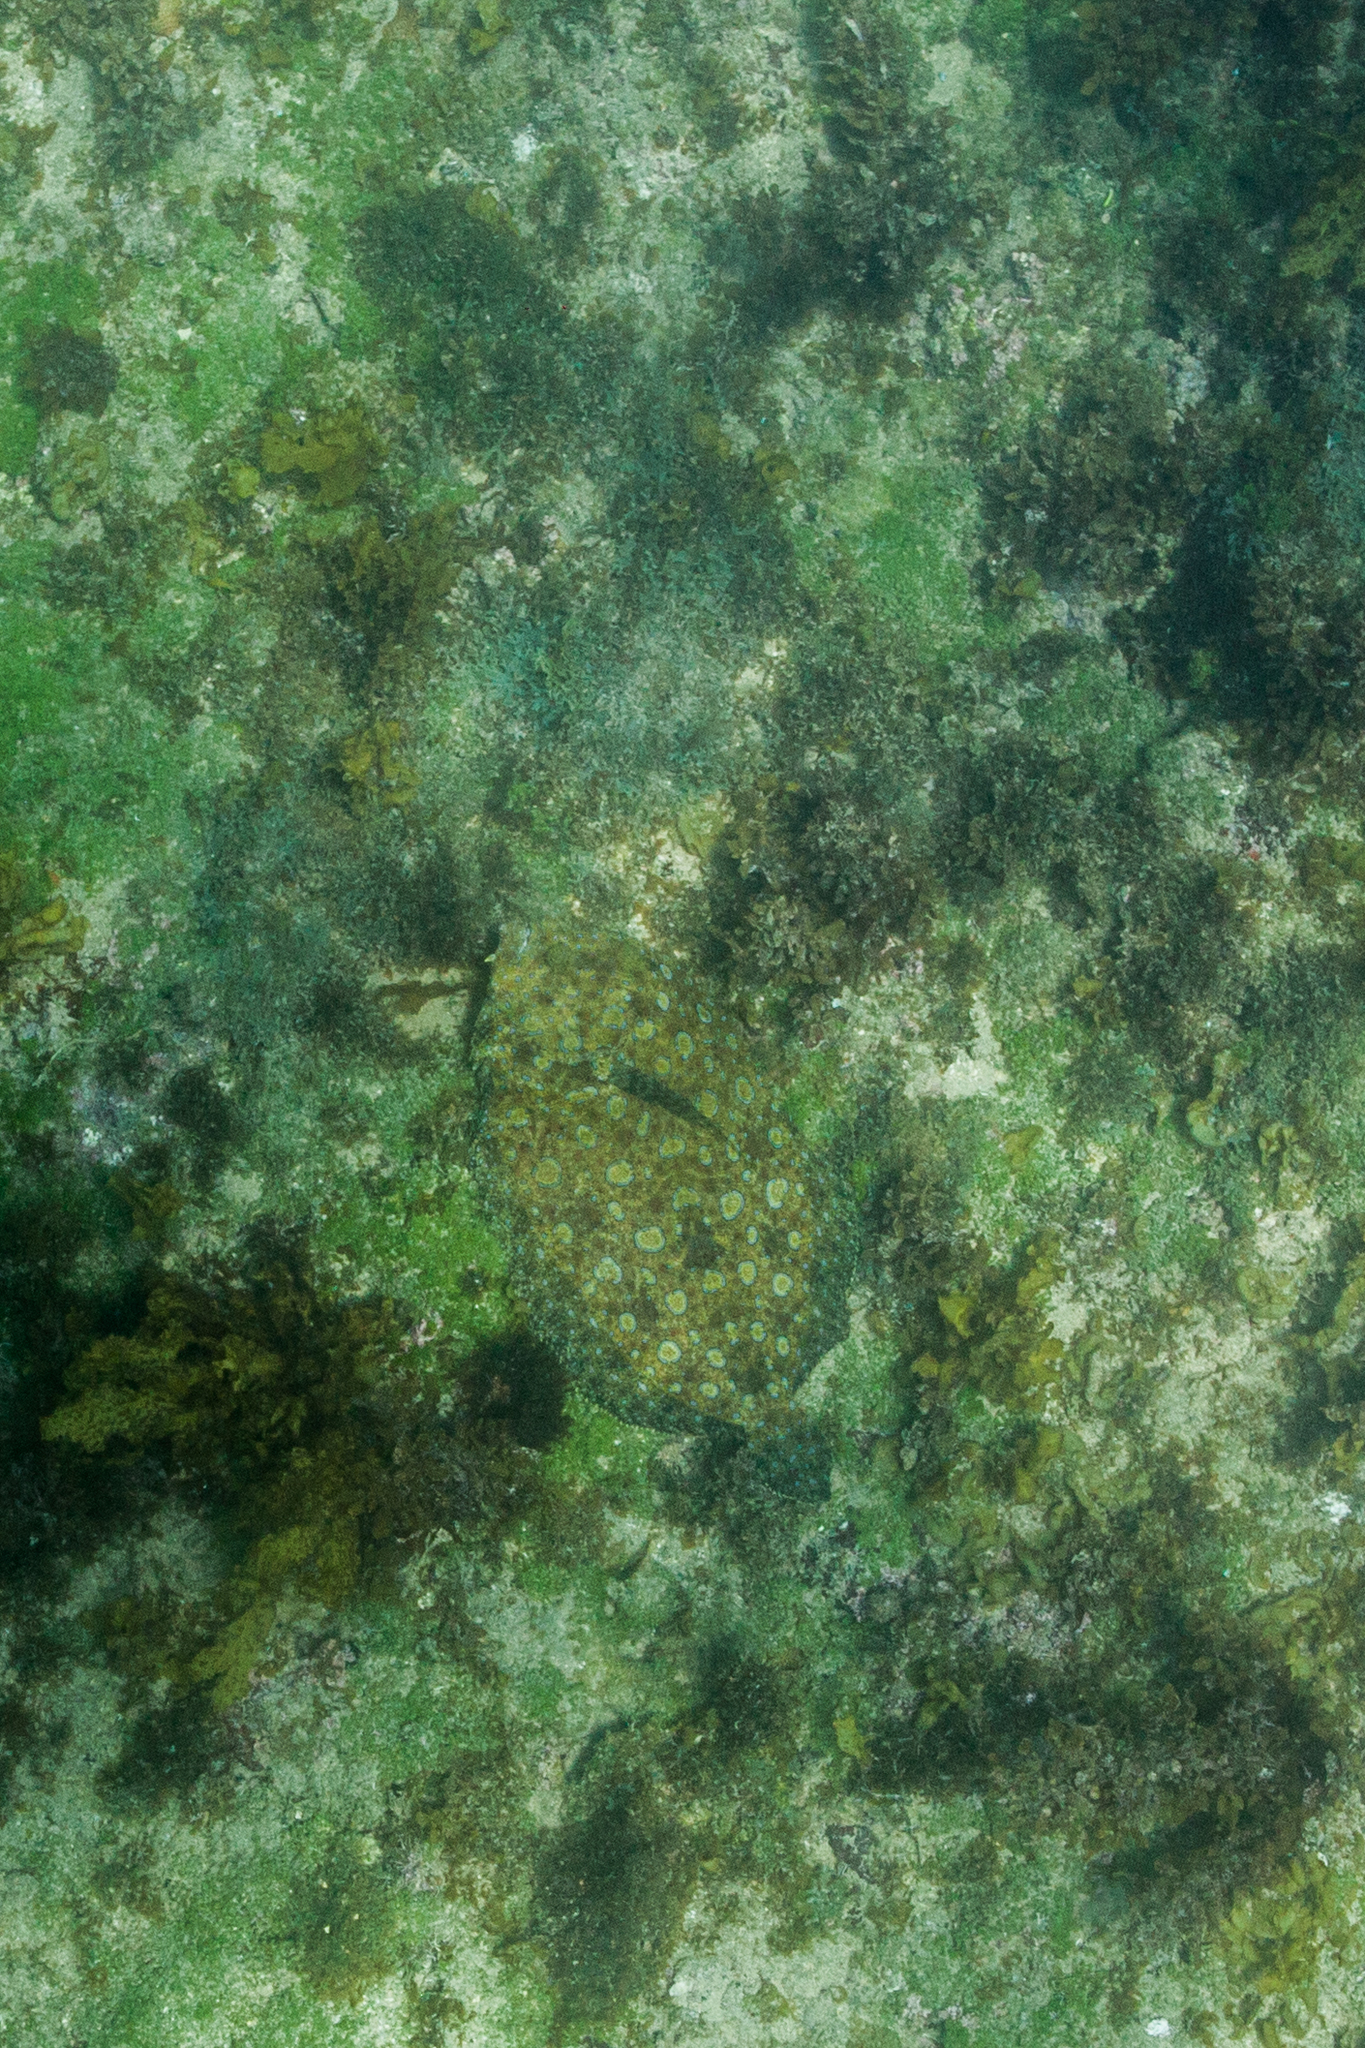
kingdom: Animalia
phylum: Chordata
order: Pleuronectiformes
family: Bothidae
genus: Bothus
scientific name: Bothus lunatus
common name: Peacock flounder
